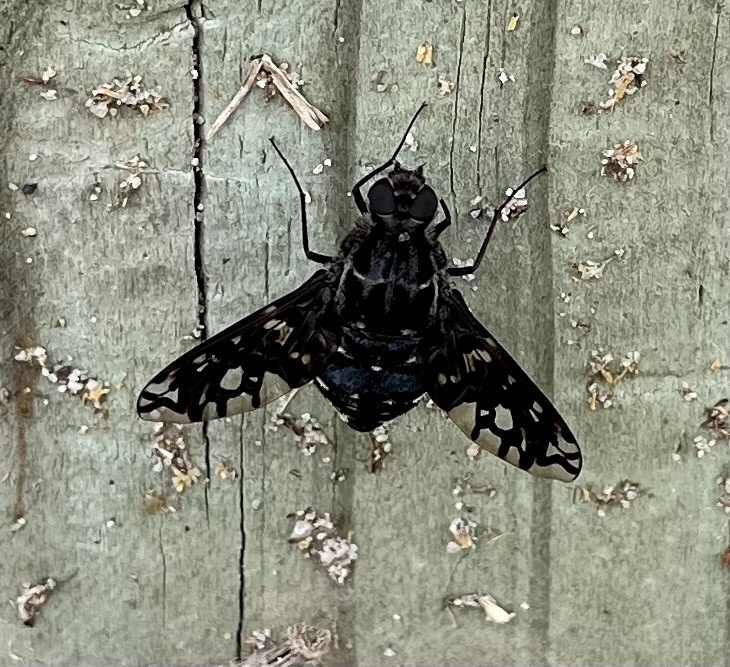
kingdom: Animalia
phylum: Arthropoda
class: Insecta
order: Diptera
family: Bombyliidae
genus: Xenox
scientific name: Xenox tigrinus
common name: Tiger bee fly
